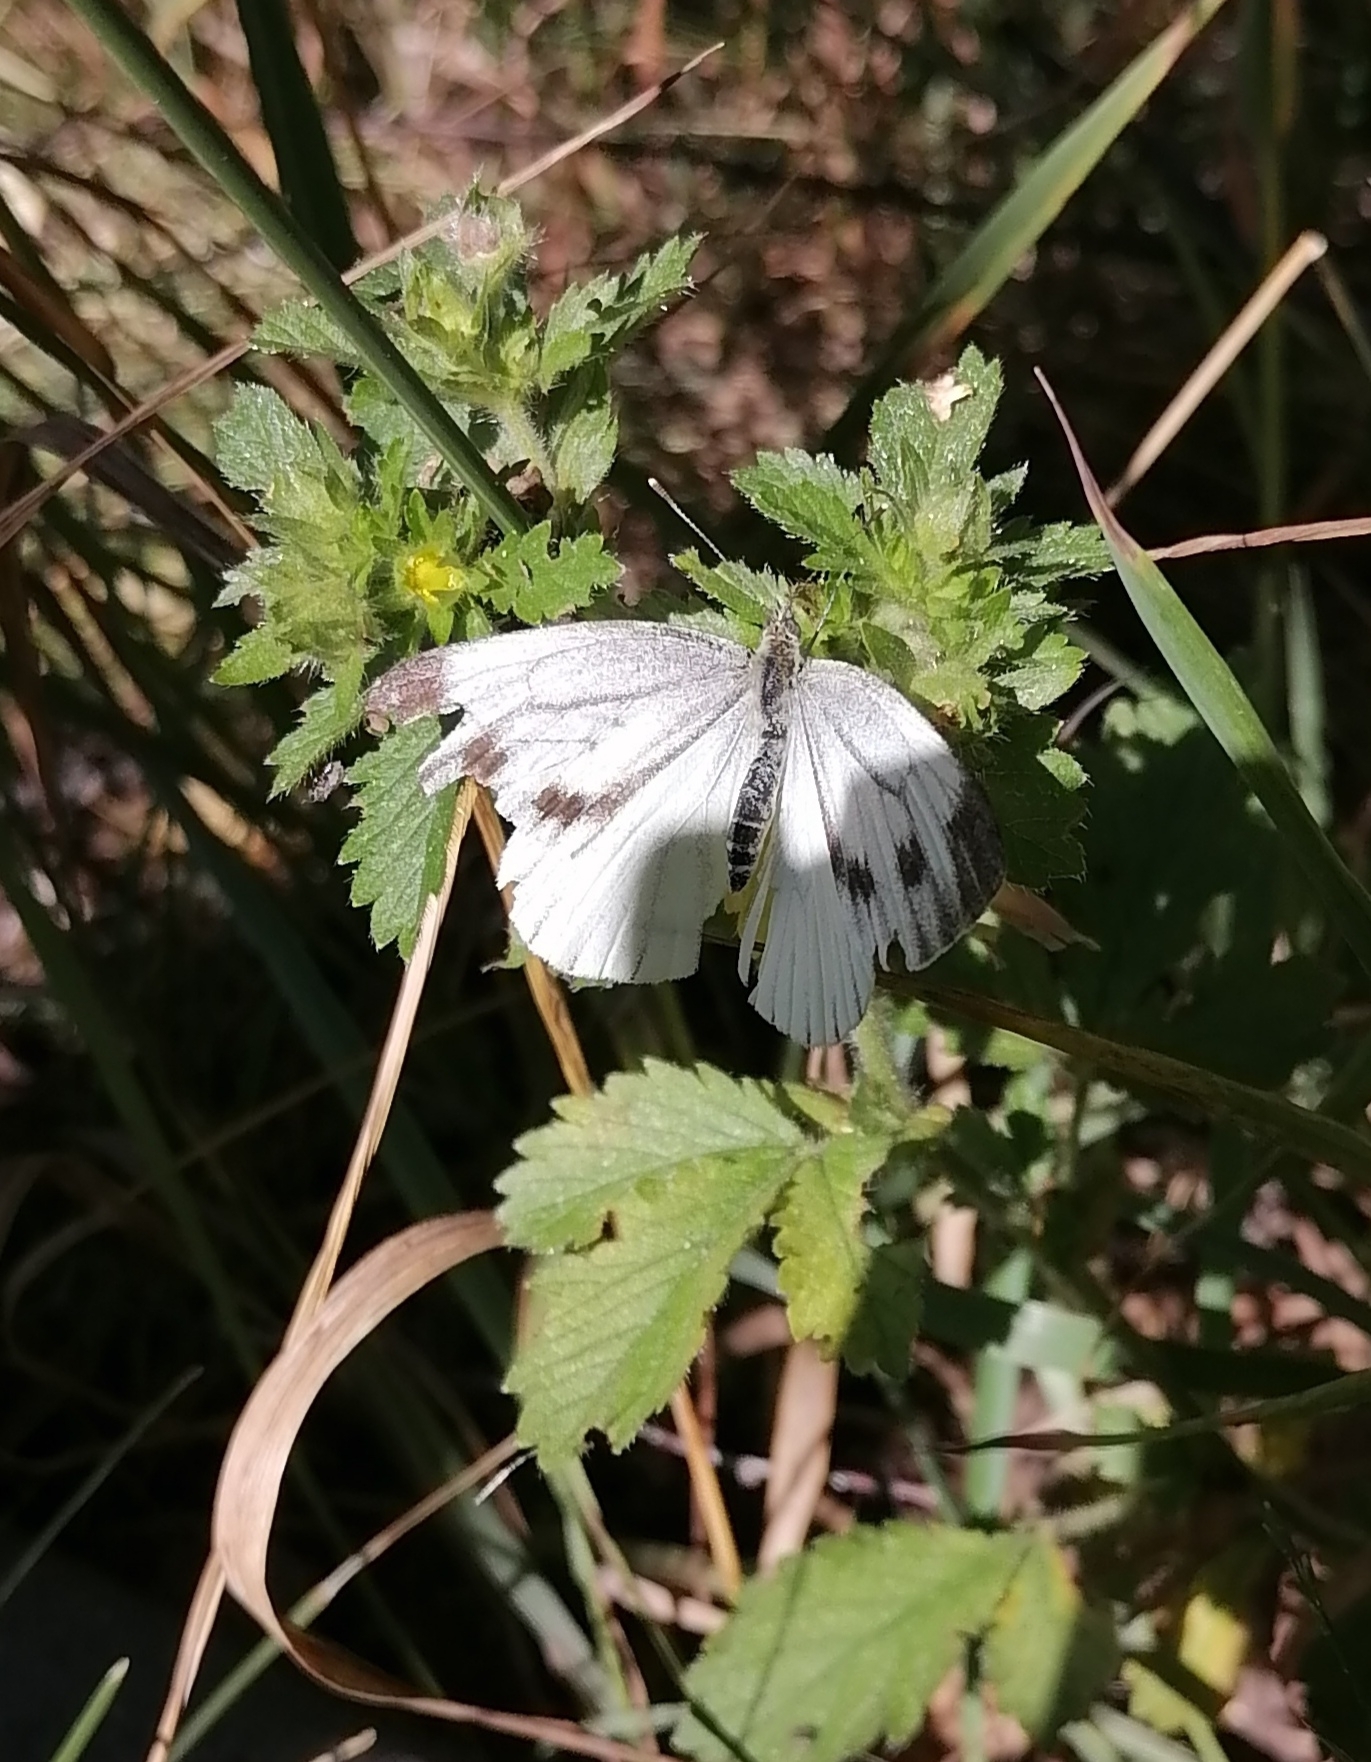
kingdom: Animalia
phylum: Arthropoda
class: Insecta
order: Lepidoptera
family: Pieridae
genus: Pieris
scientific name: Pieris napi
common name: Green-veined white
